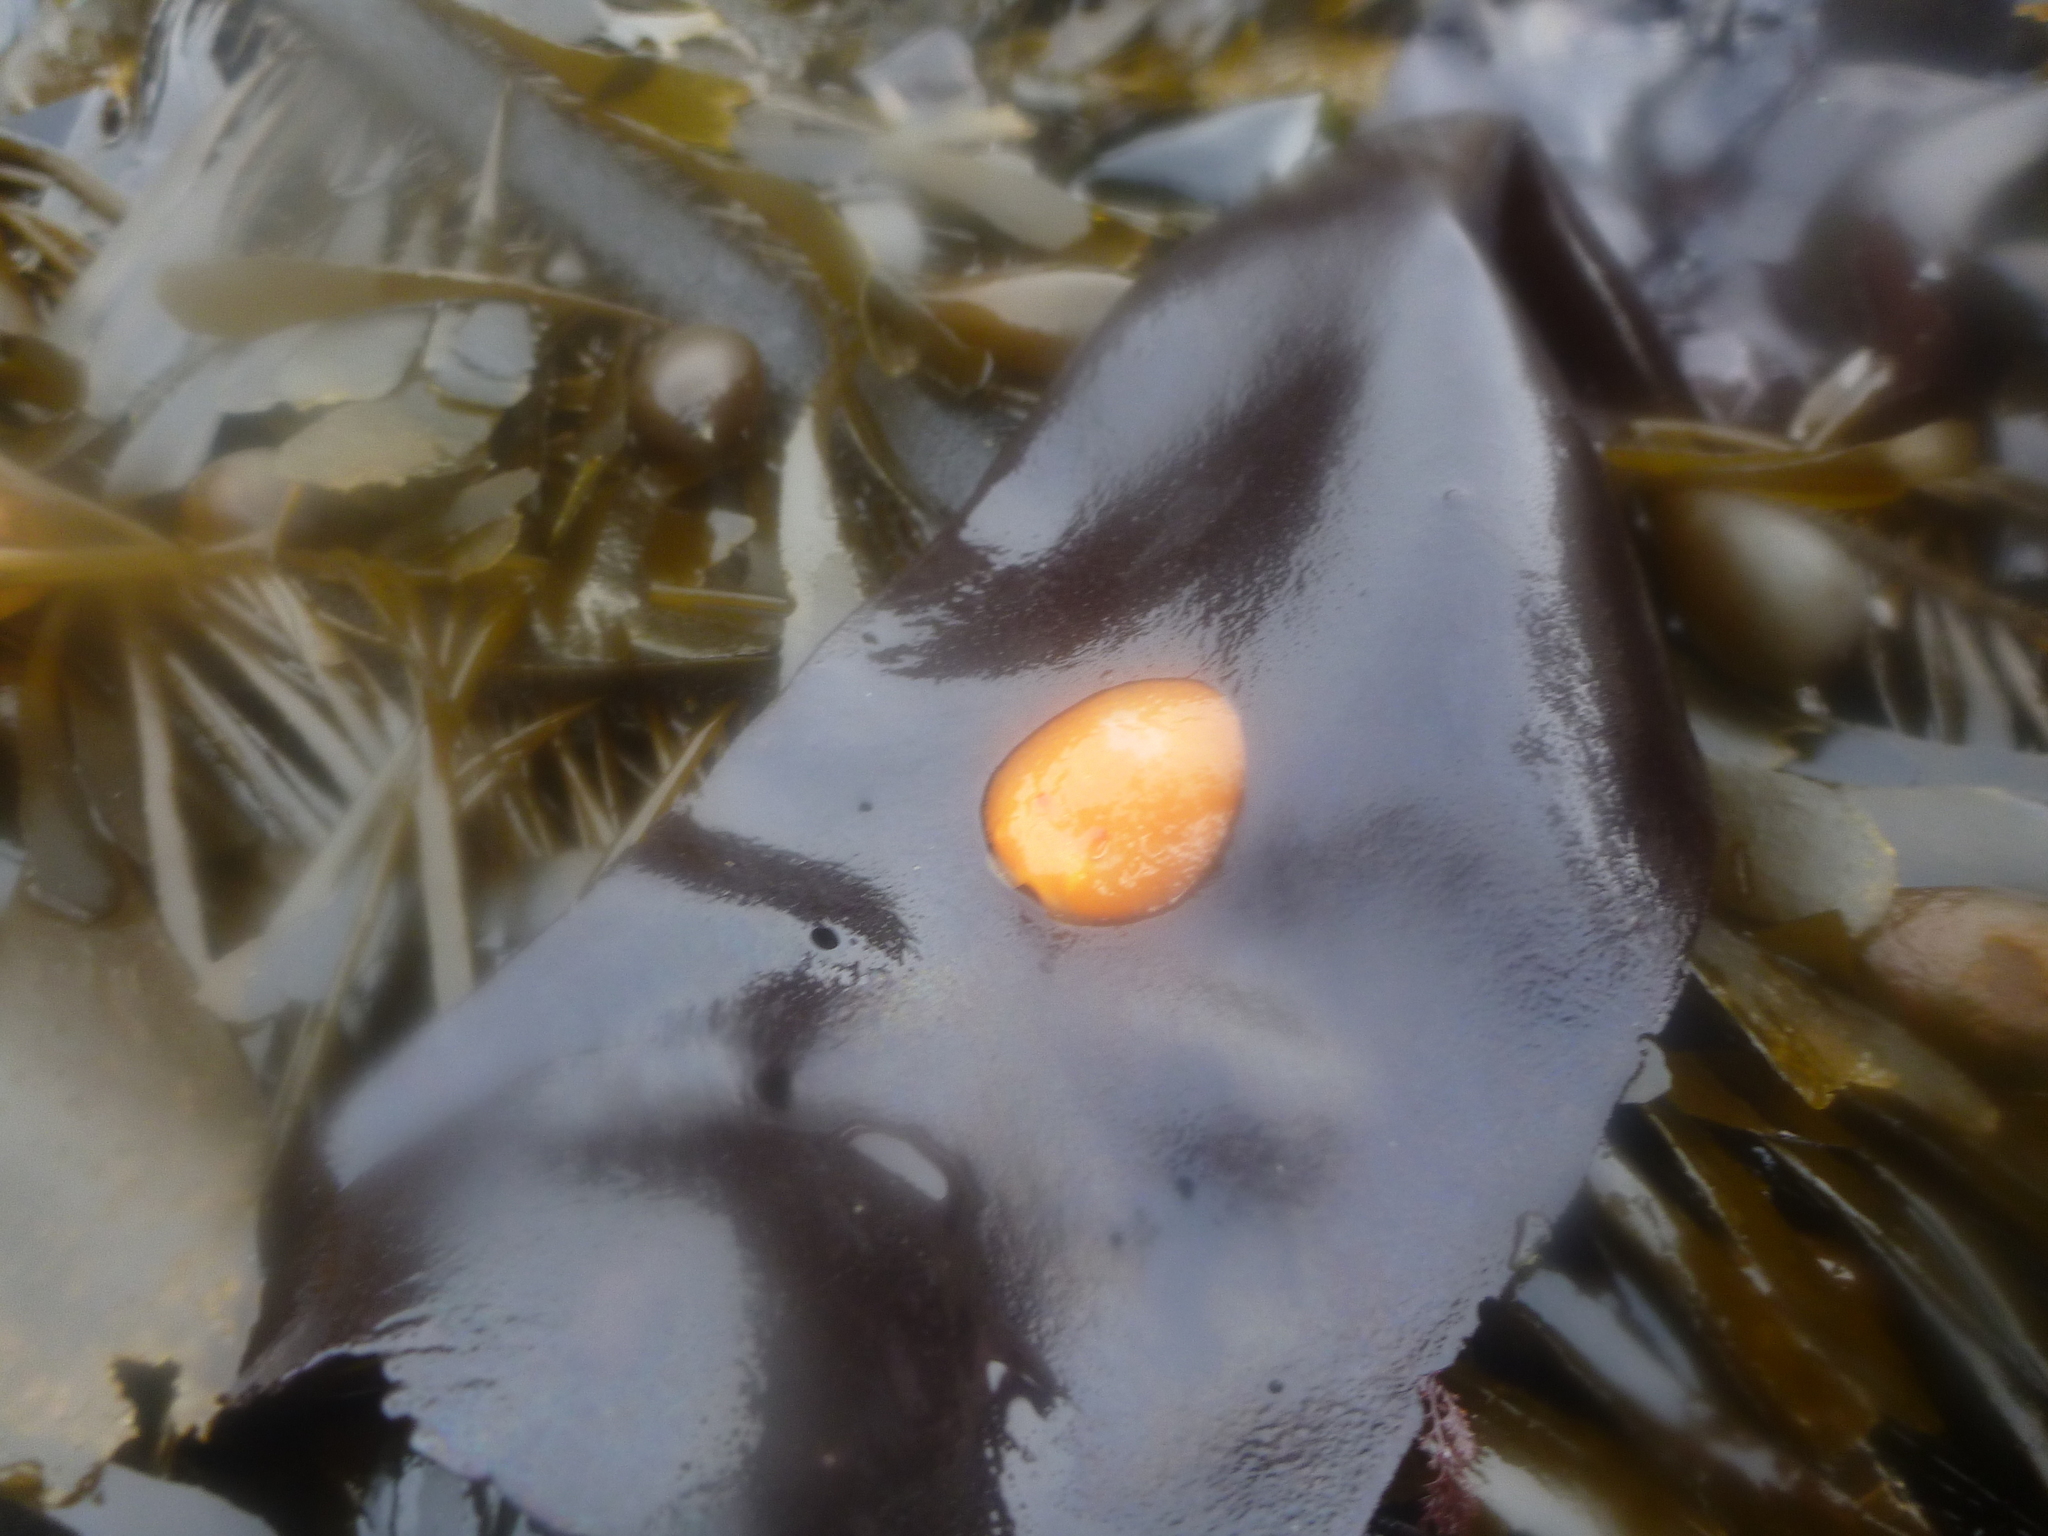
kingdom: Animalia
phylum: Mollusca
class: Gastropoda
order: Nudibranchia
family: Onchidorididae
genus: Acanthodoris
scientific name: Acanthodoris lutea
